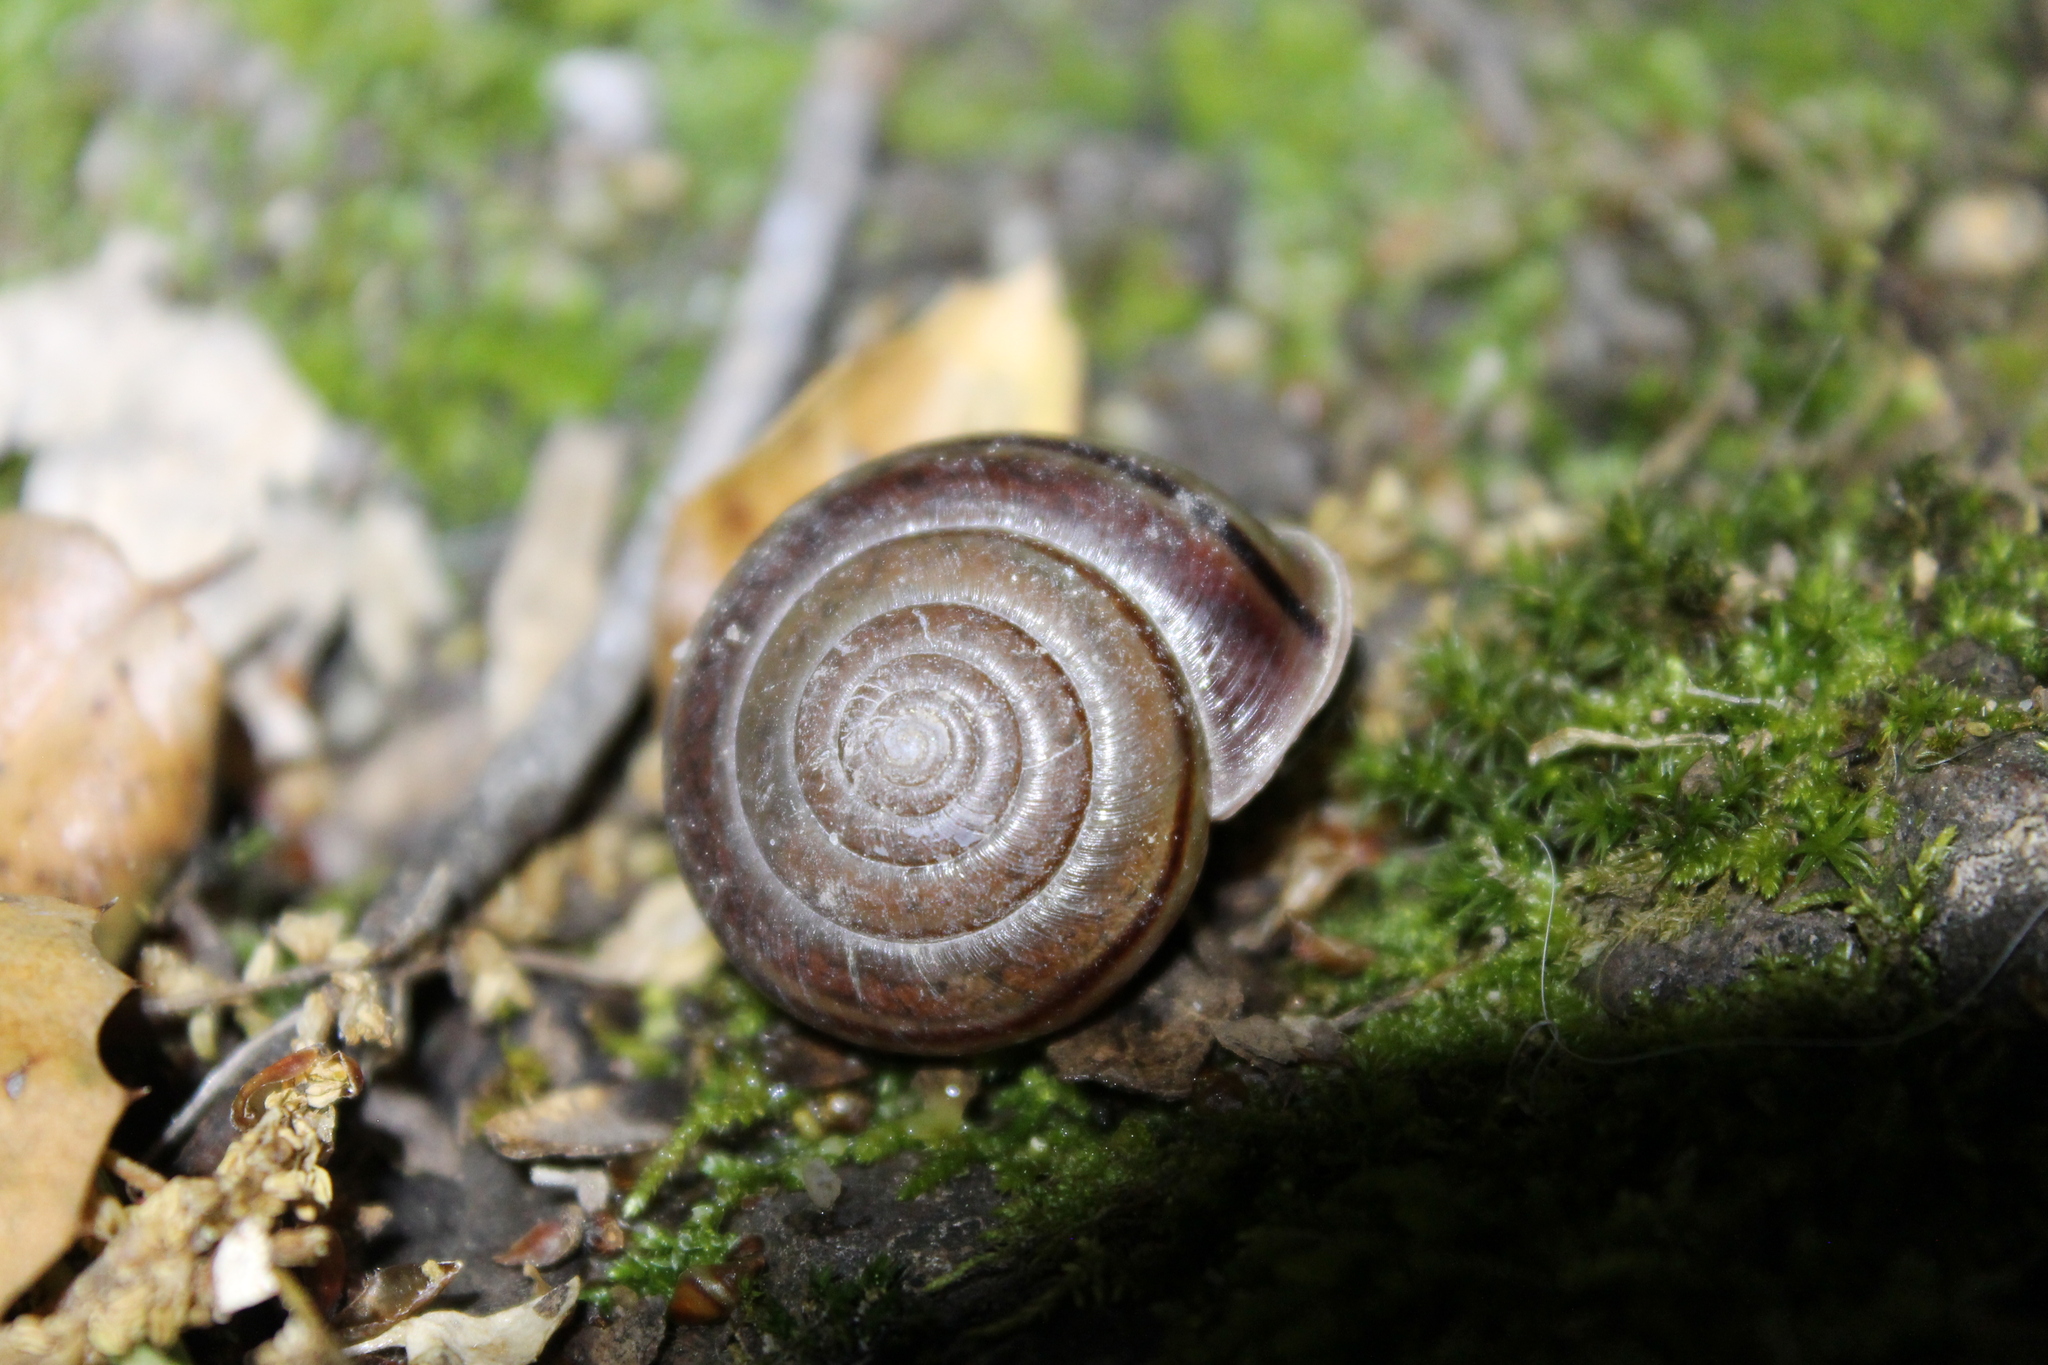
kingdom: Animalia
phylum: Mollusca
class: Gastropoda
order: Stylommatophora
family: Xanthonychidae
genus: Helminthoglypta
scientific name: Helminthoglypta benitoensis
